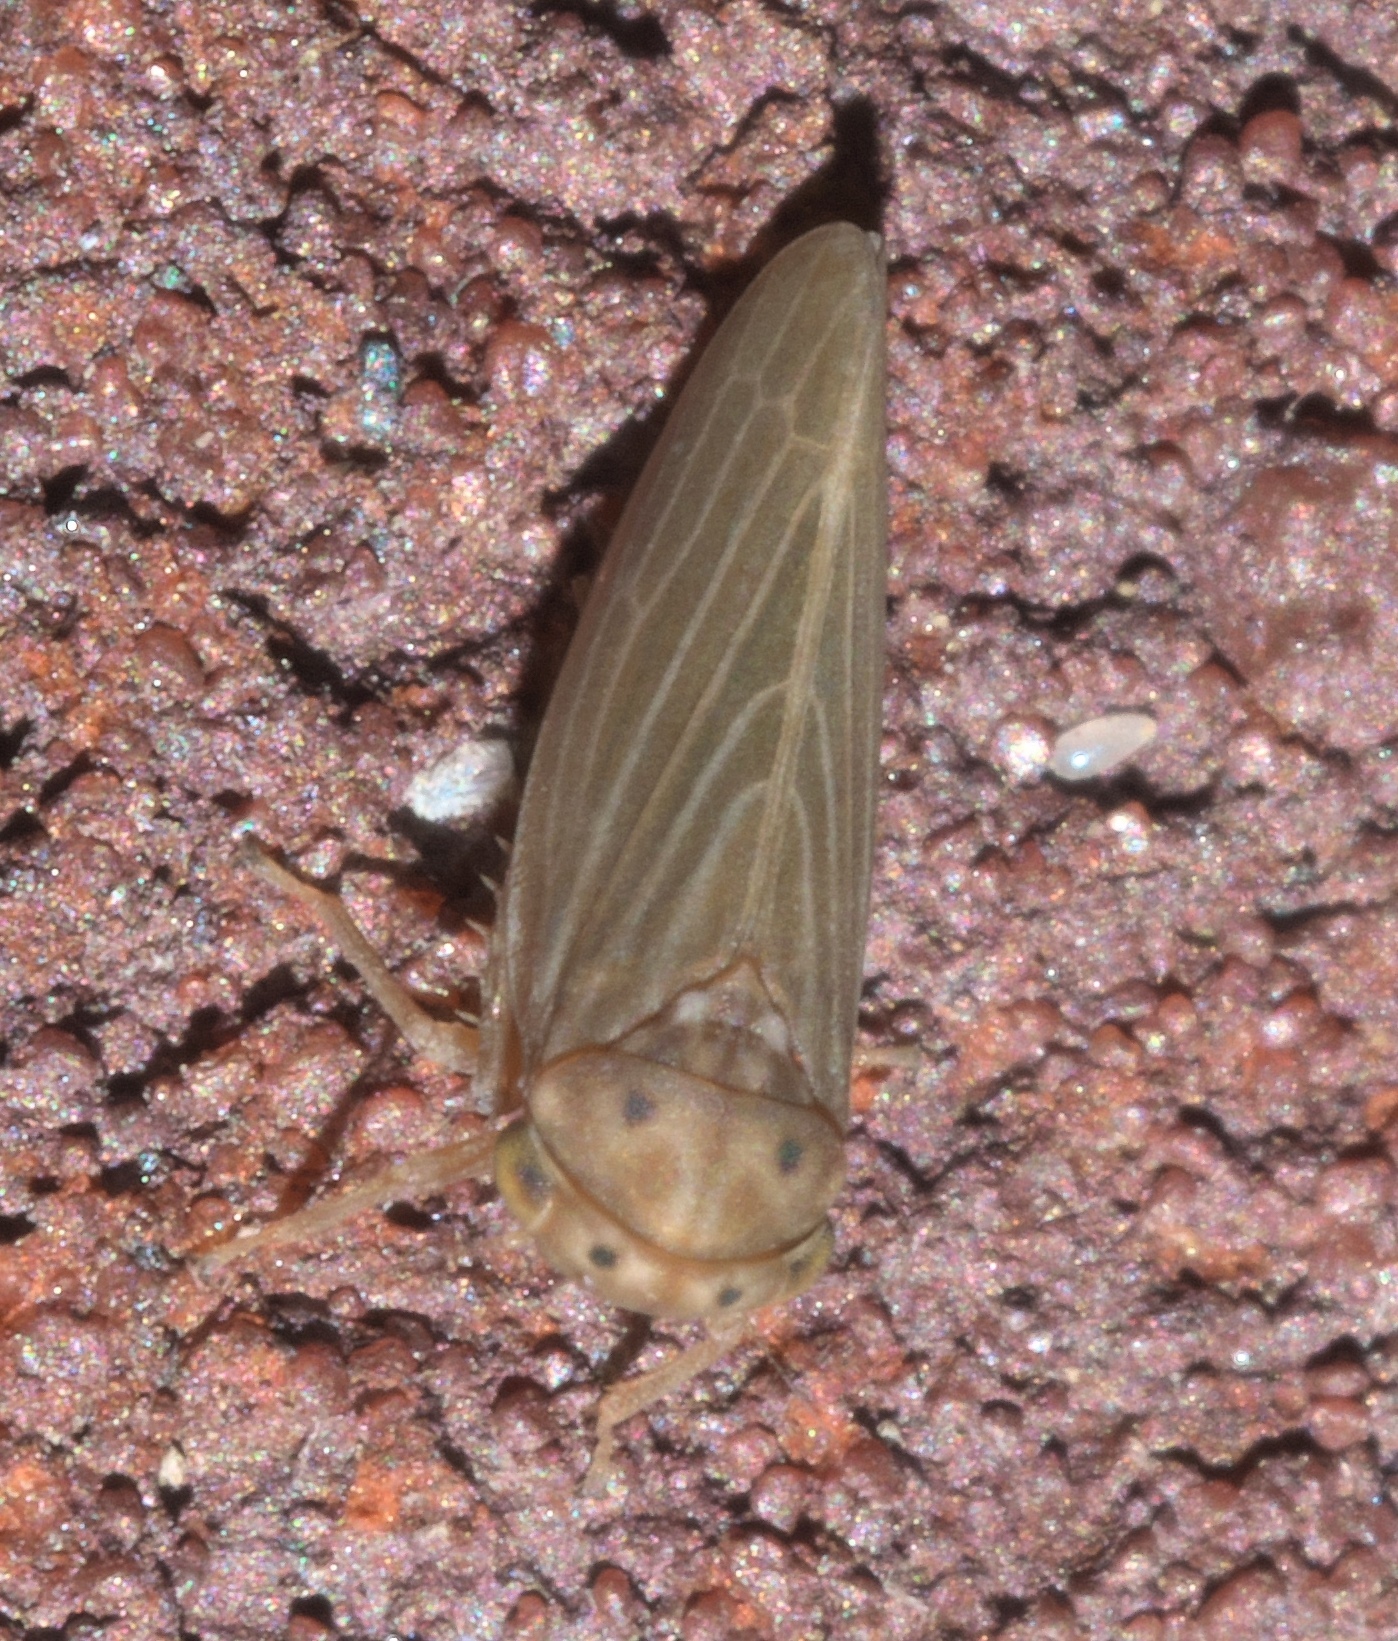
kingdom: Animalia
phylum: Arthropoda
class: Insecta
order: Hemiptera
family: Cicadellidae
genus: Agallia
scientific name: Agallia constricta
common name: The constricted leafhopper
